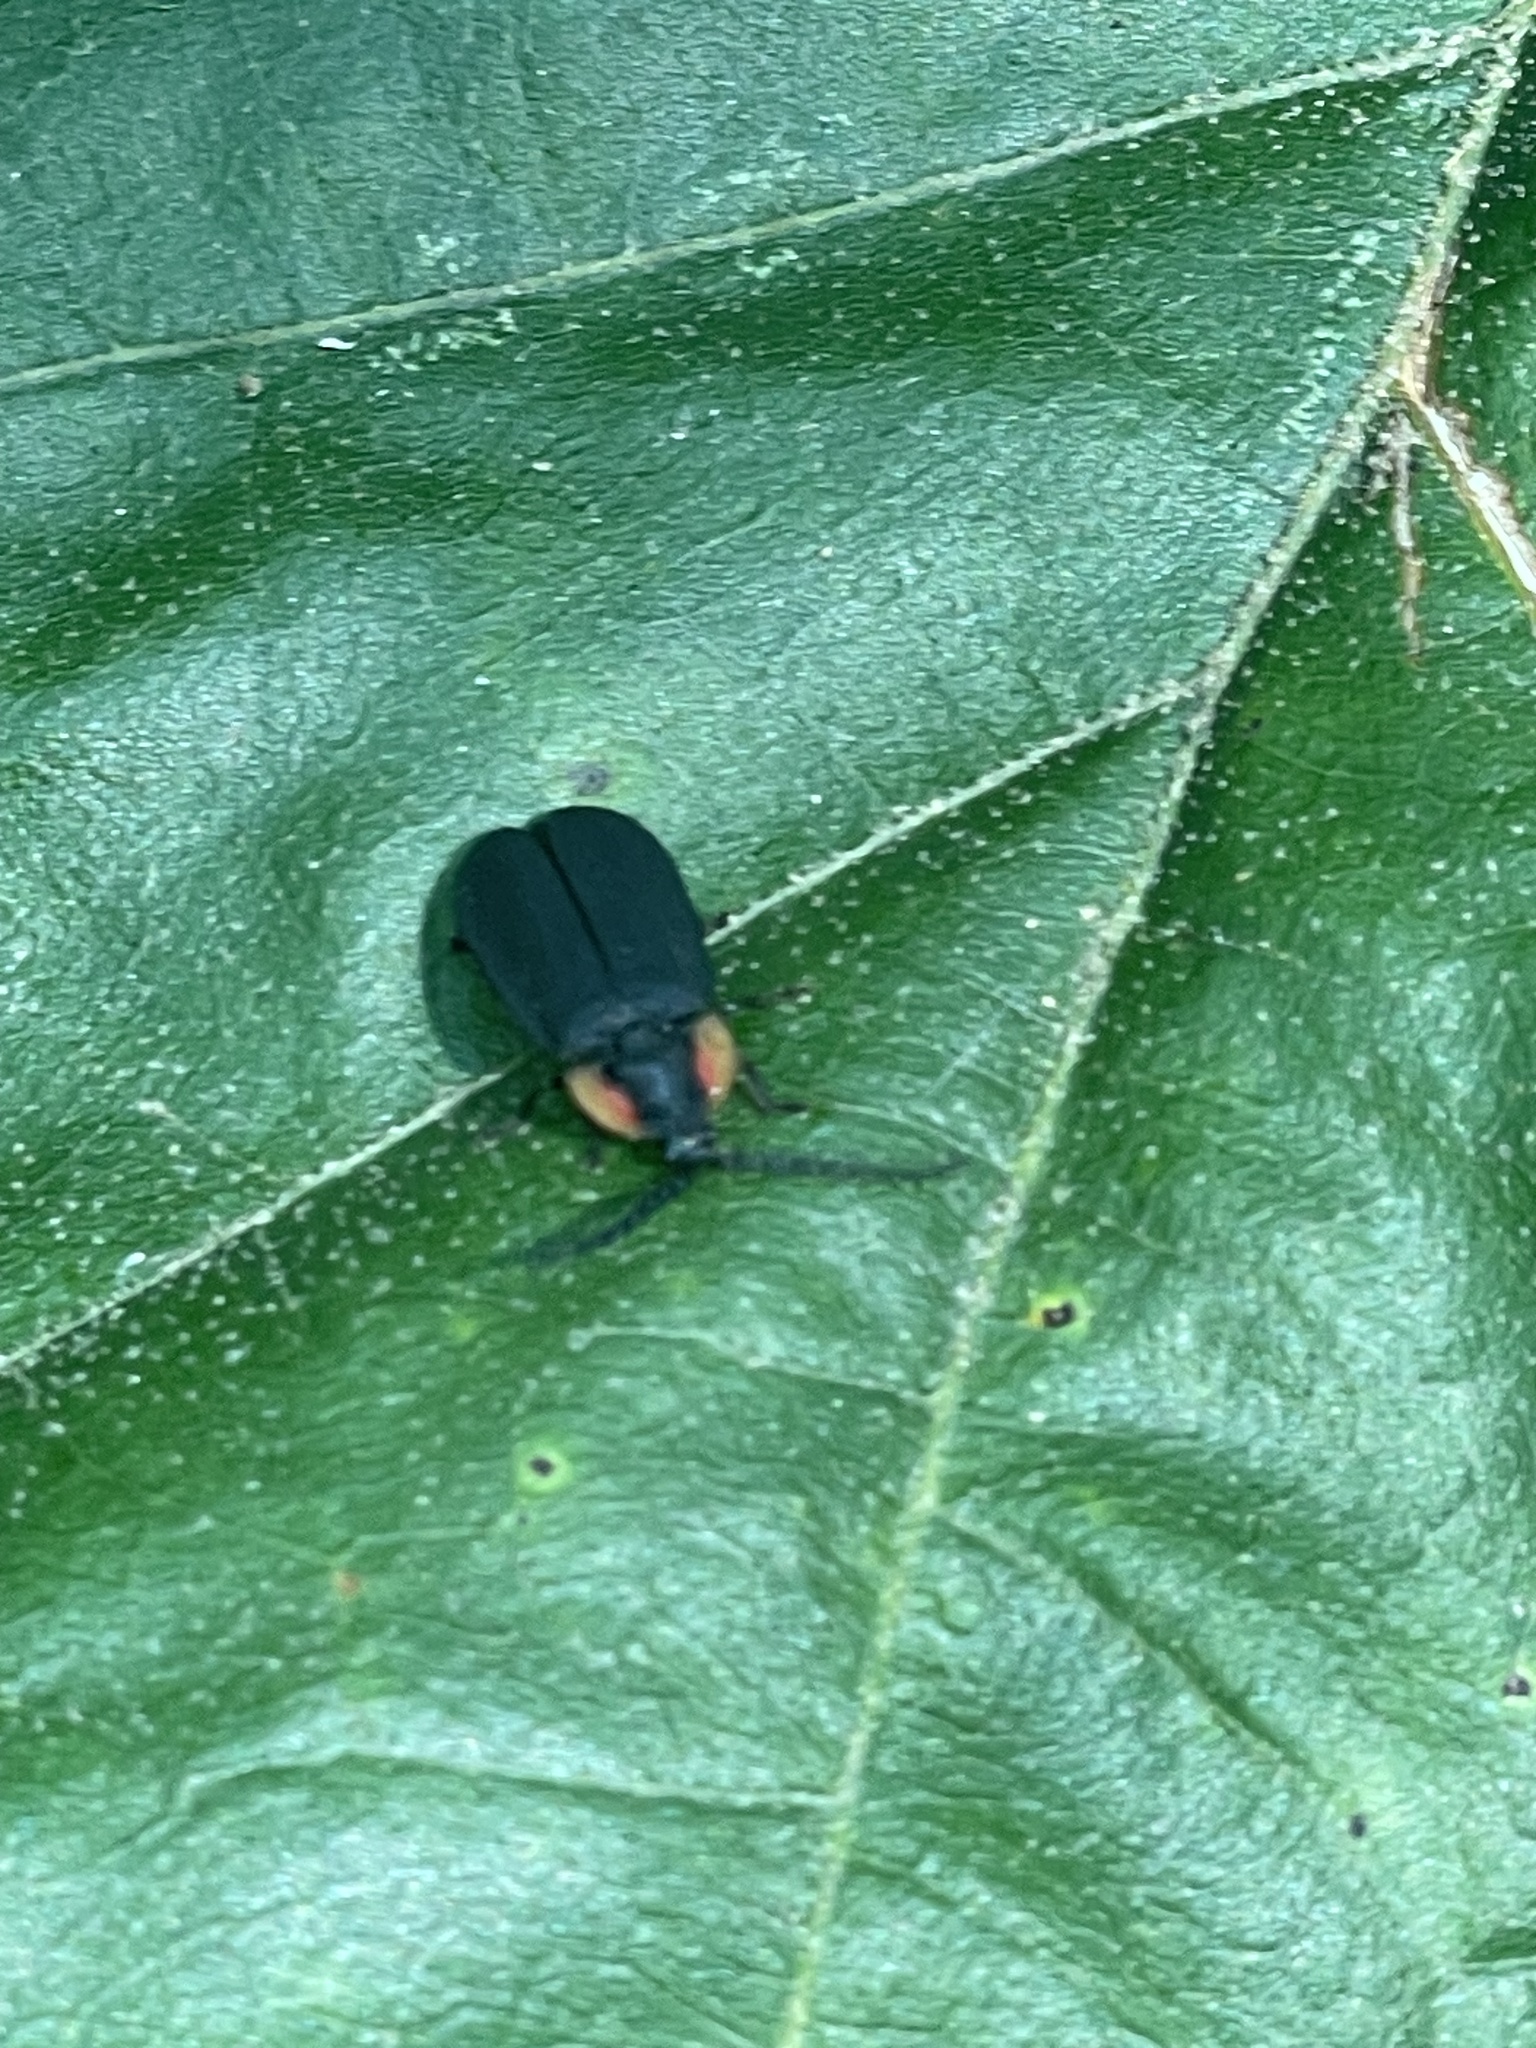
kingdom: Animalia
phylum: Arthropoda
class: Insecta
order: Coleoptera
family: Lampyridae
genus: Lucidota
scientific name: Lucidota atra
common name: Black firefly
